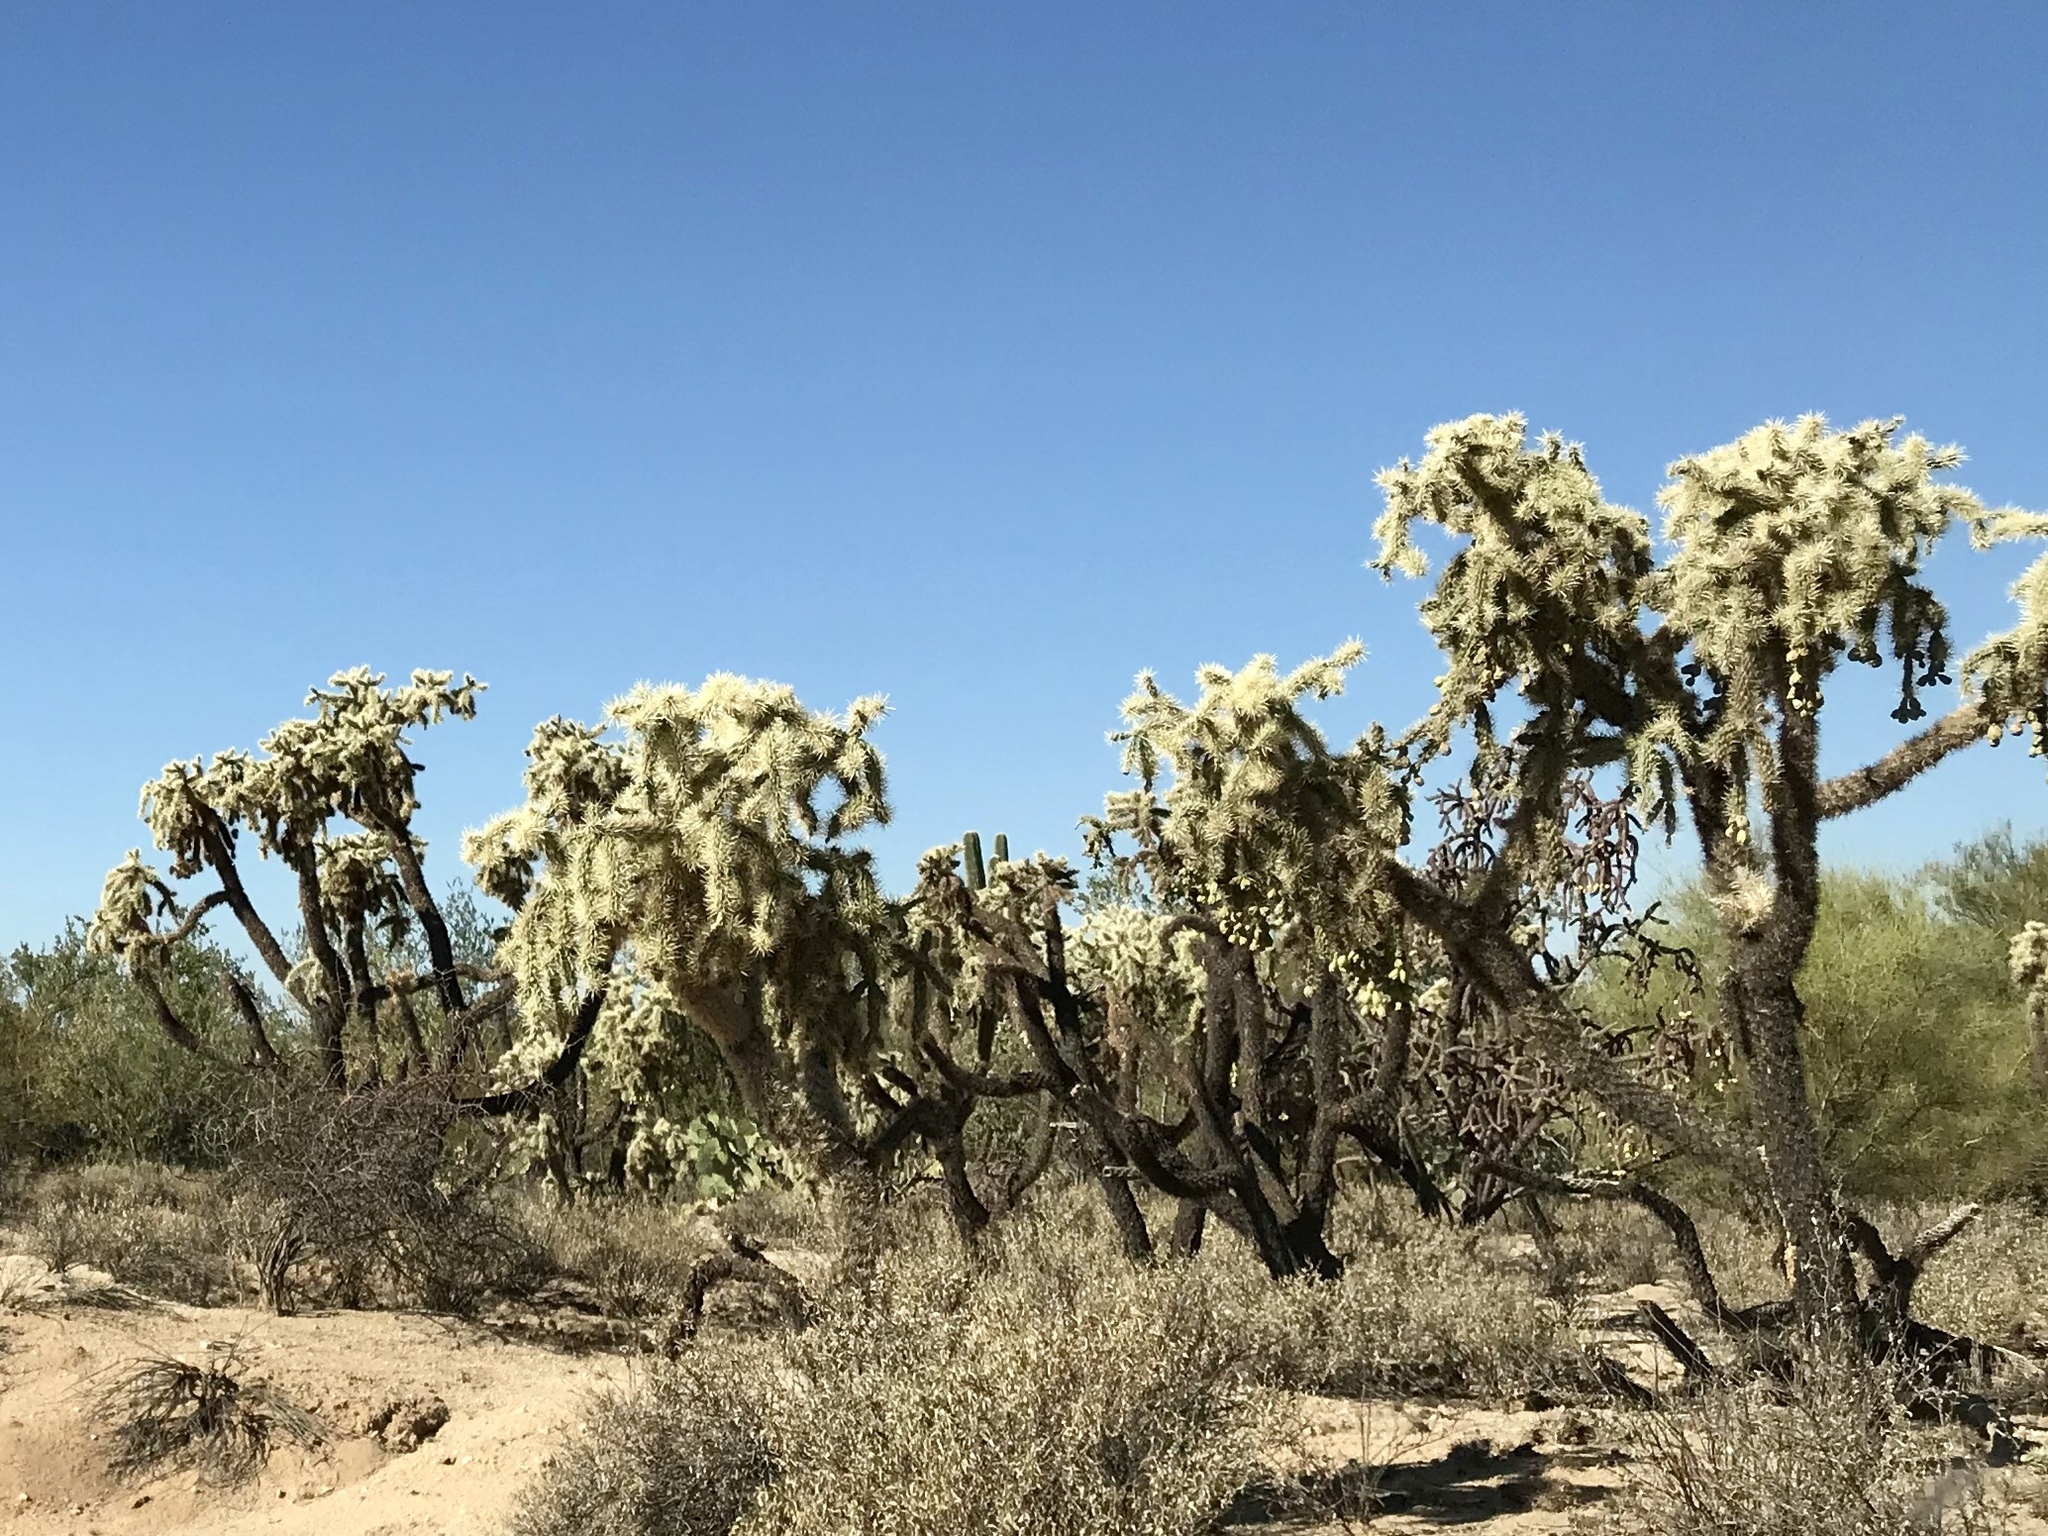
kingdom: Plantae
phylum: Tracheophyta
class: Magnoliopsida
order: Caryophyllales
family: Cactaceae
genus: Cylindropuntia
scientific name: Cylindropuntia fulgida
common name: Jumping cholla
